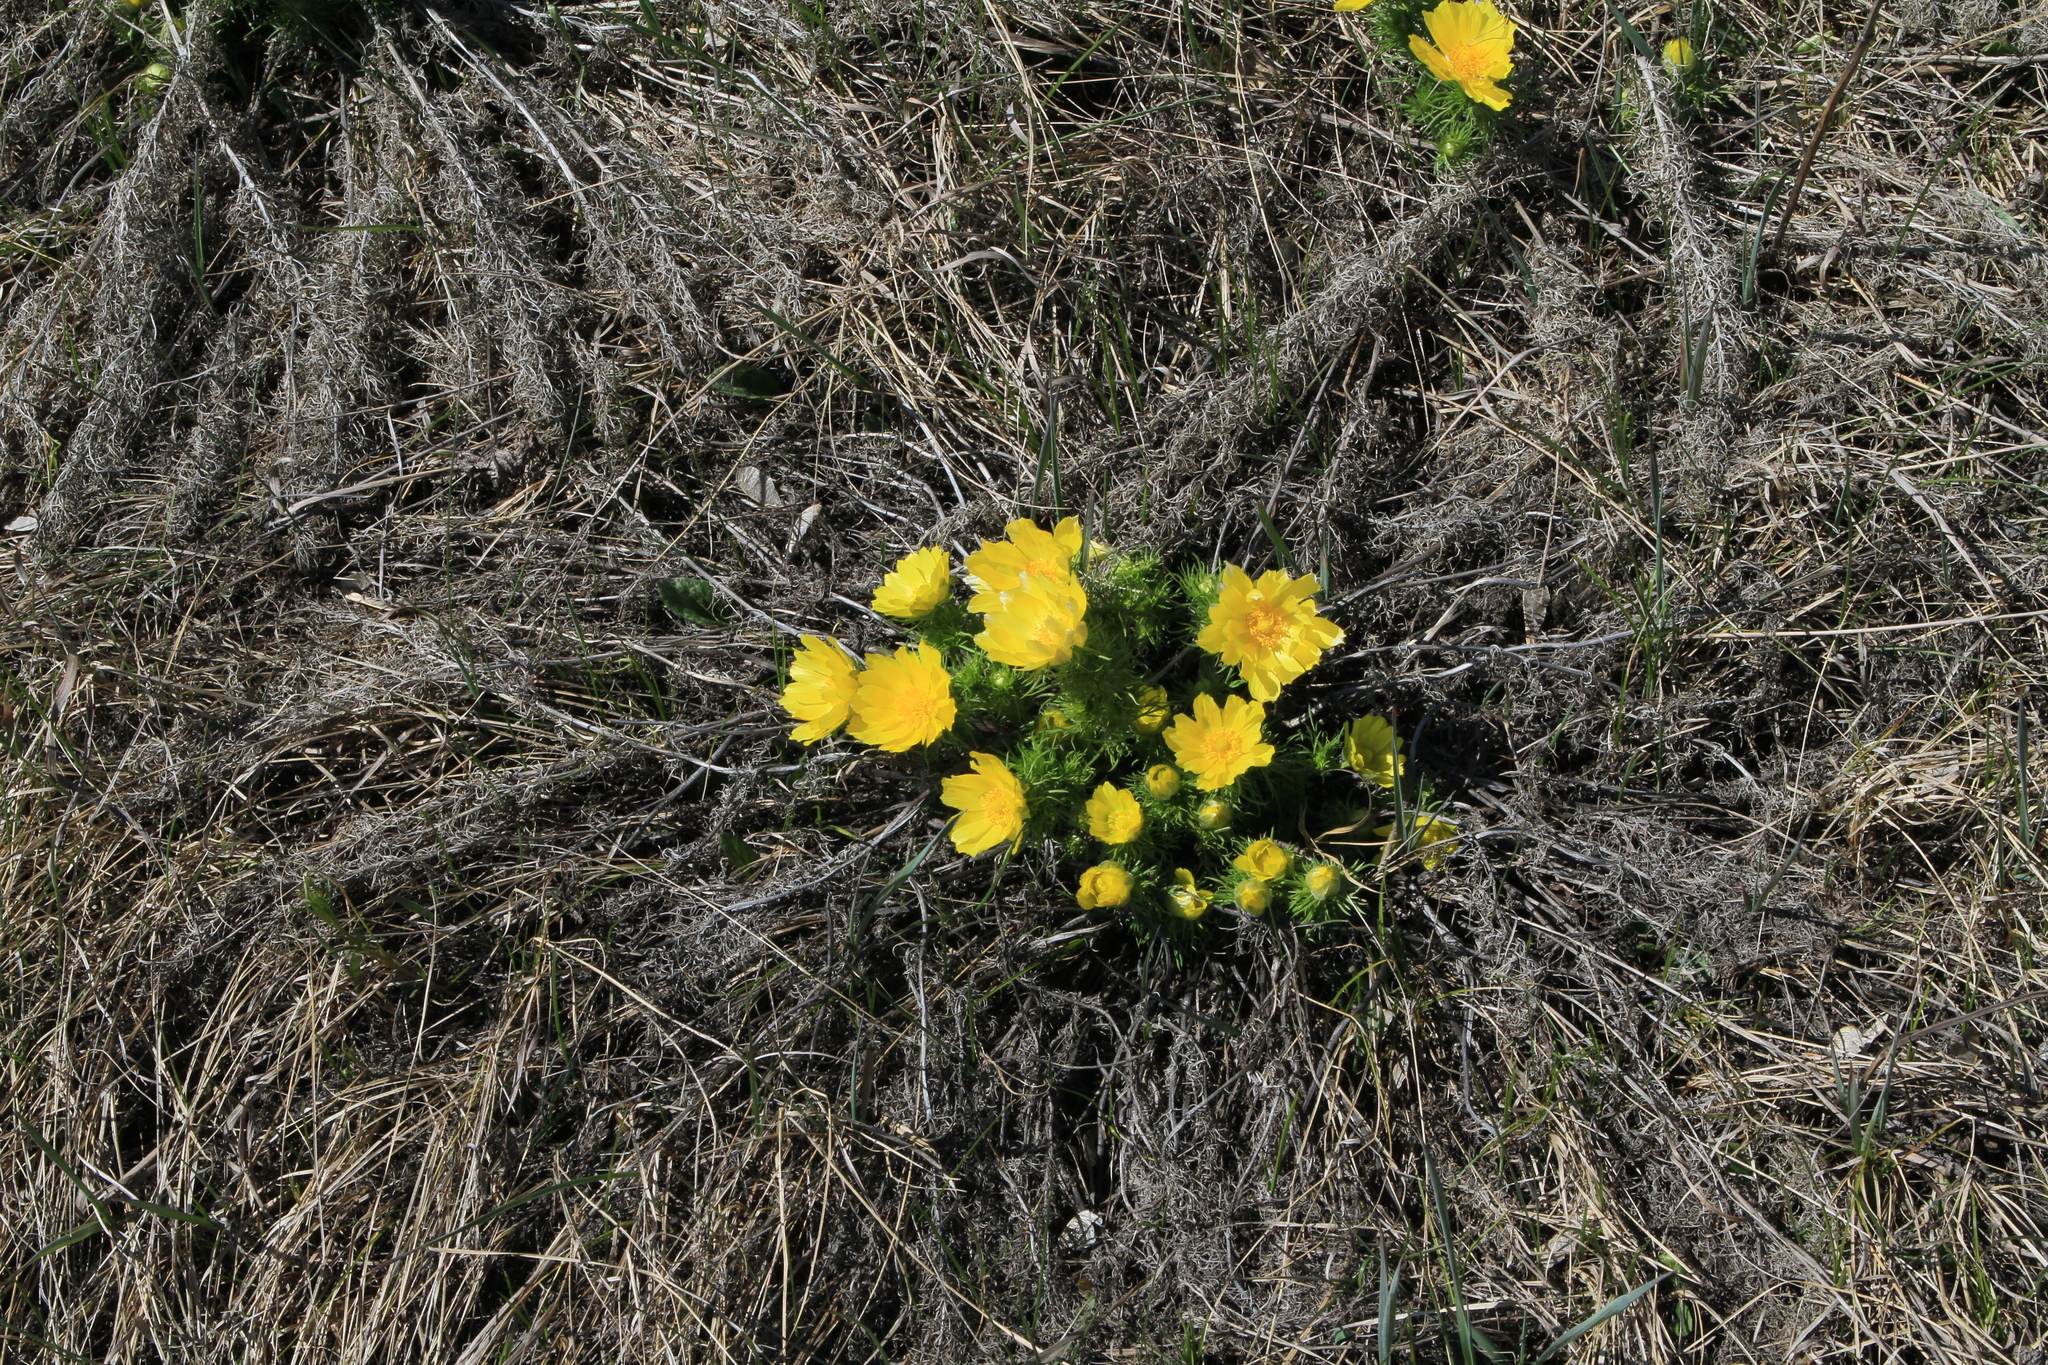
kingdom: Plantae
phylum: Tracheophyta
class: Magnoliopsida
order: Ranunculales
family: Ranunculaceae
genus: Adonis
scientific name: Adonis vernalis
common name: Yellow pheasants-eye
